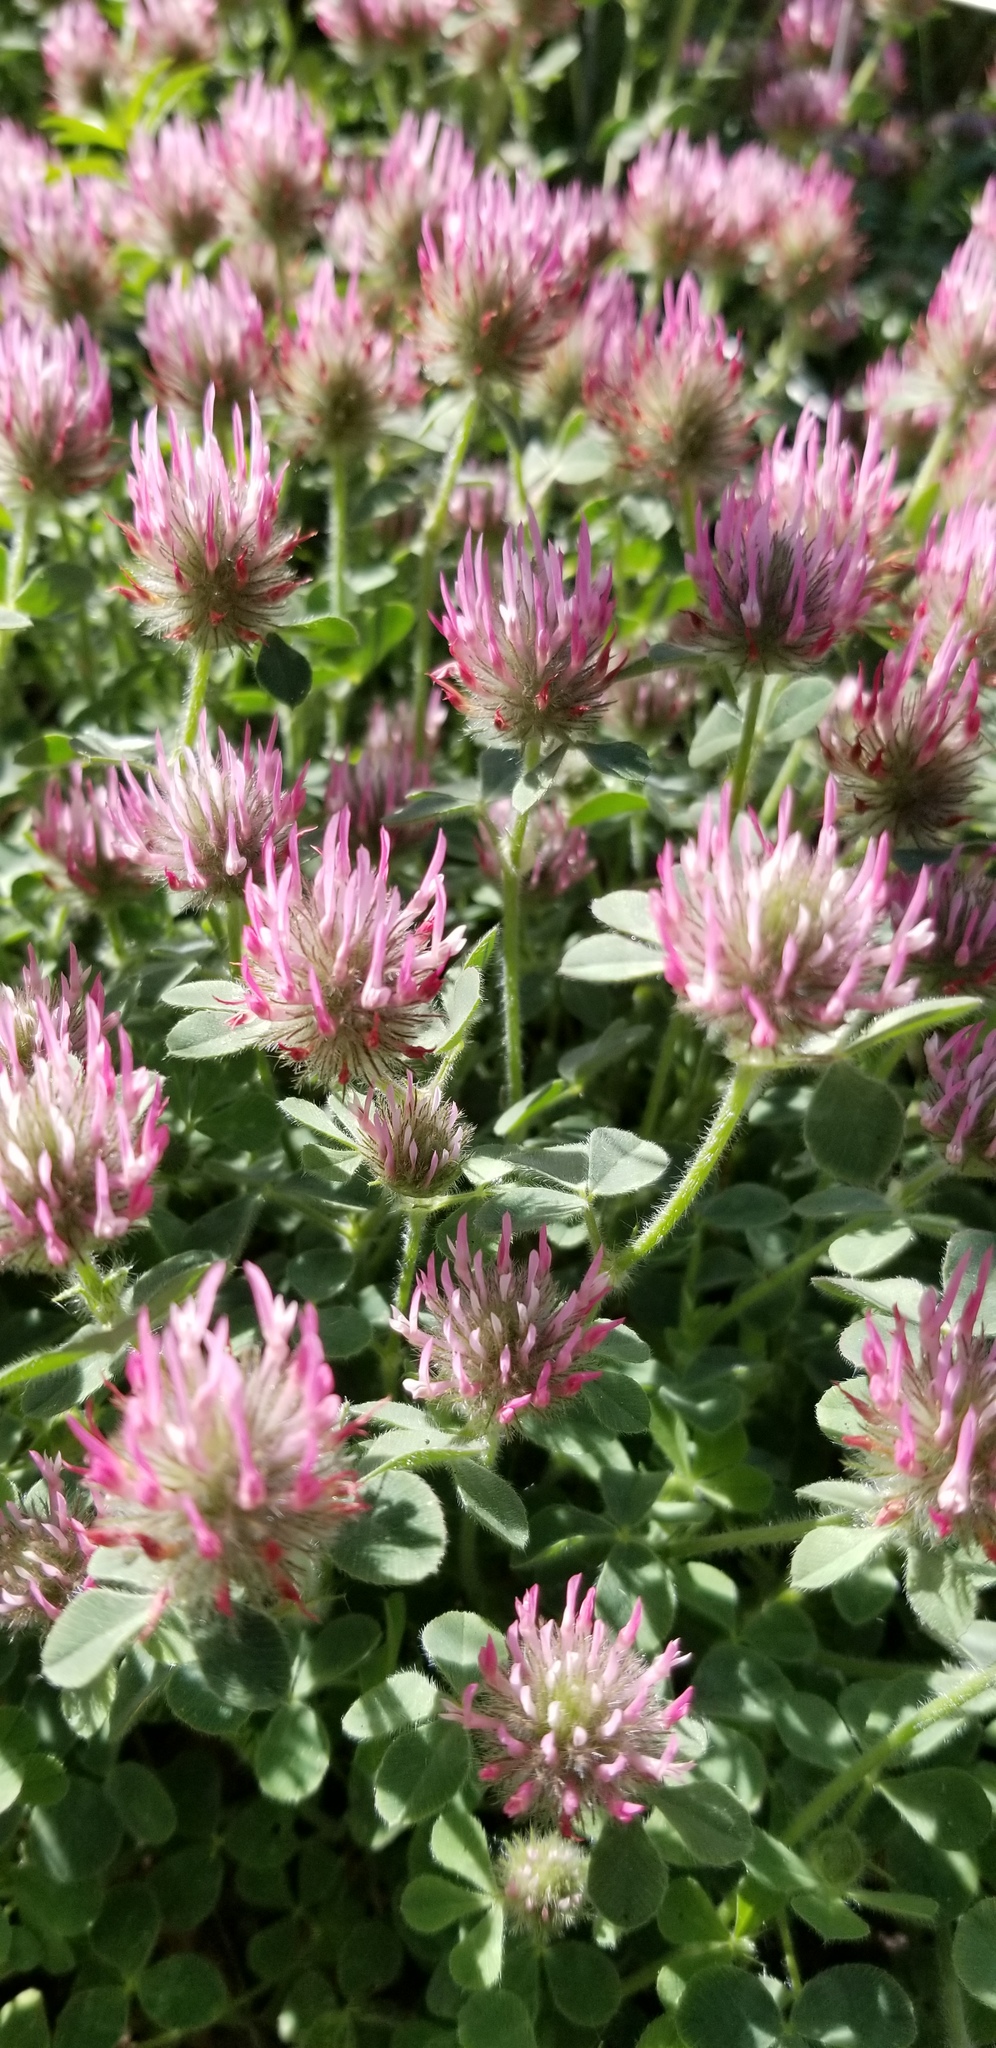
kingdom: Plantae
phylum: Tracheophyta
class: Magnoliopsida
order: Fabales
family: Fabaceae
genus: Trifolium
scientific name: Trifolium hirtum
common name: Rose clover
